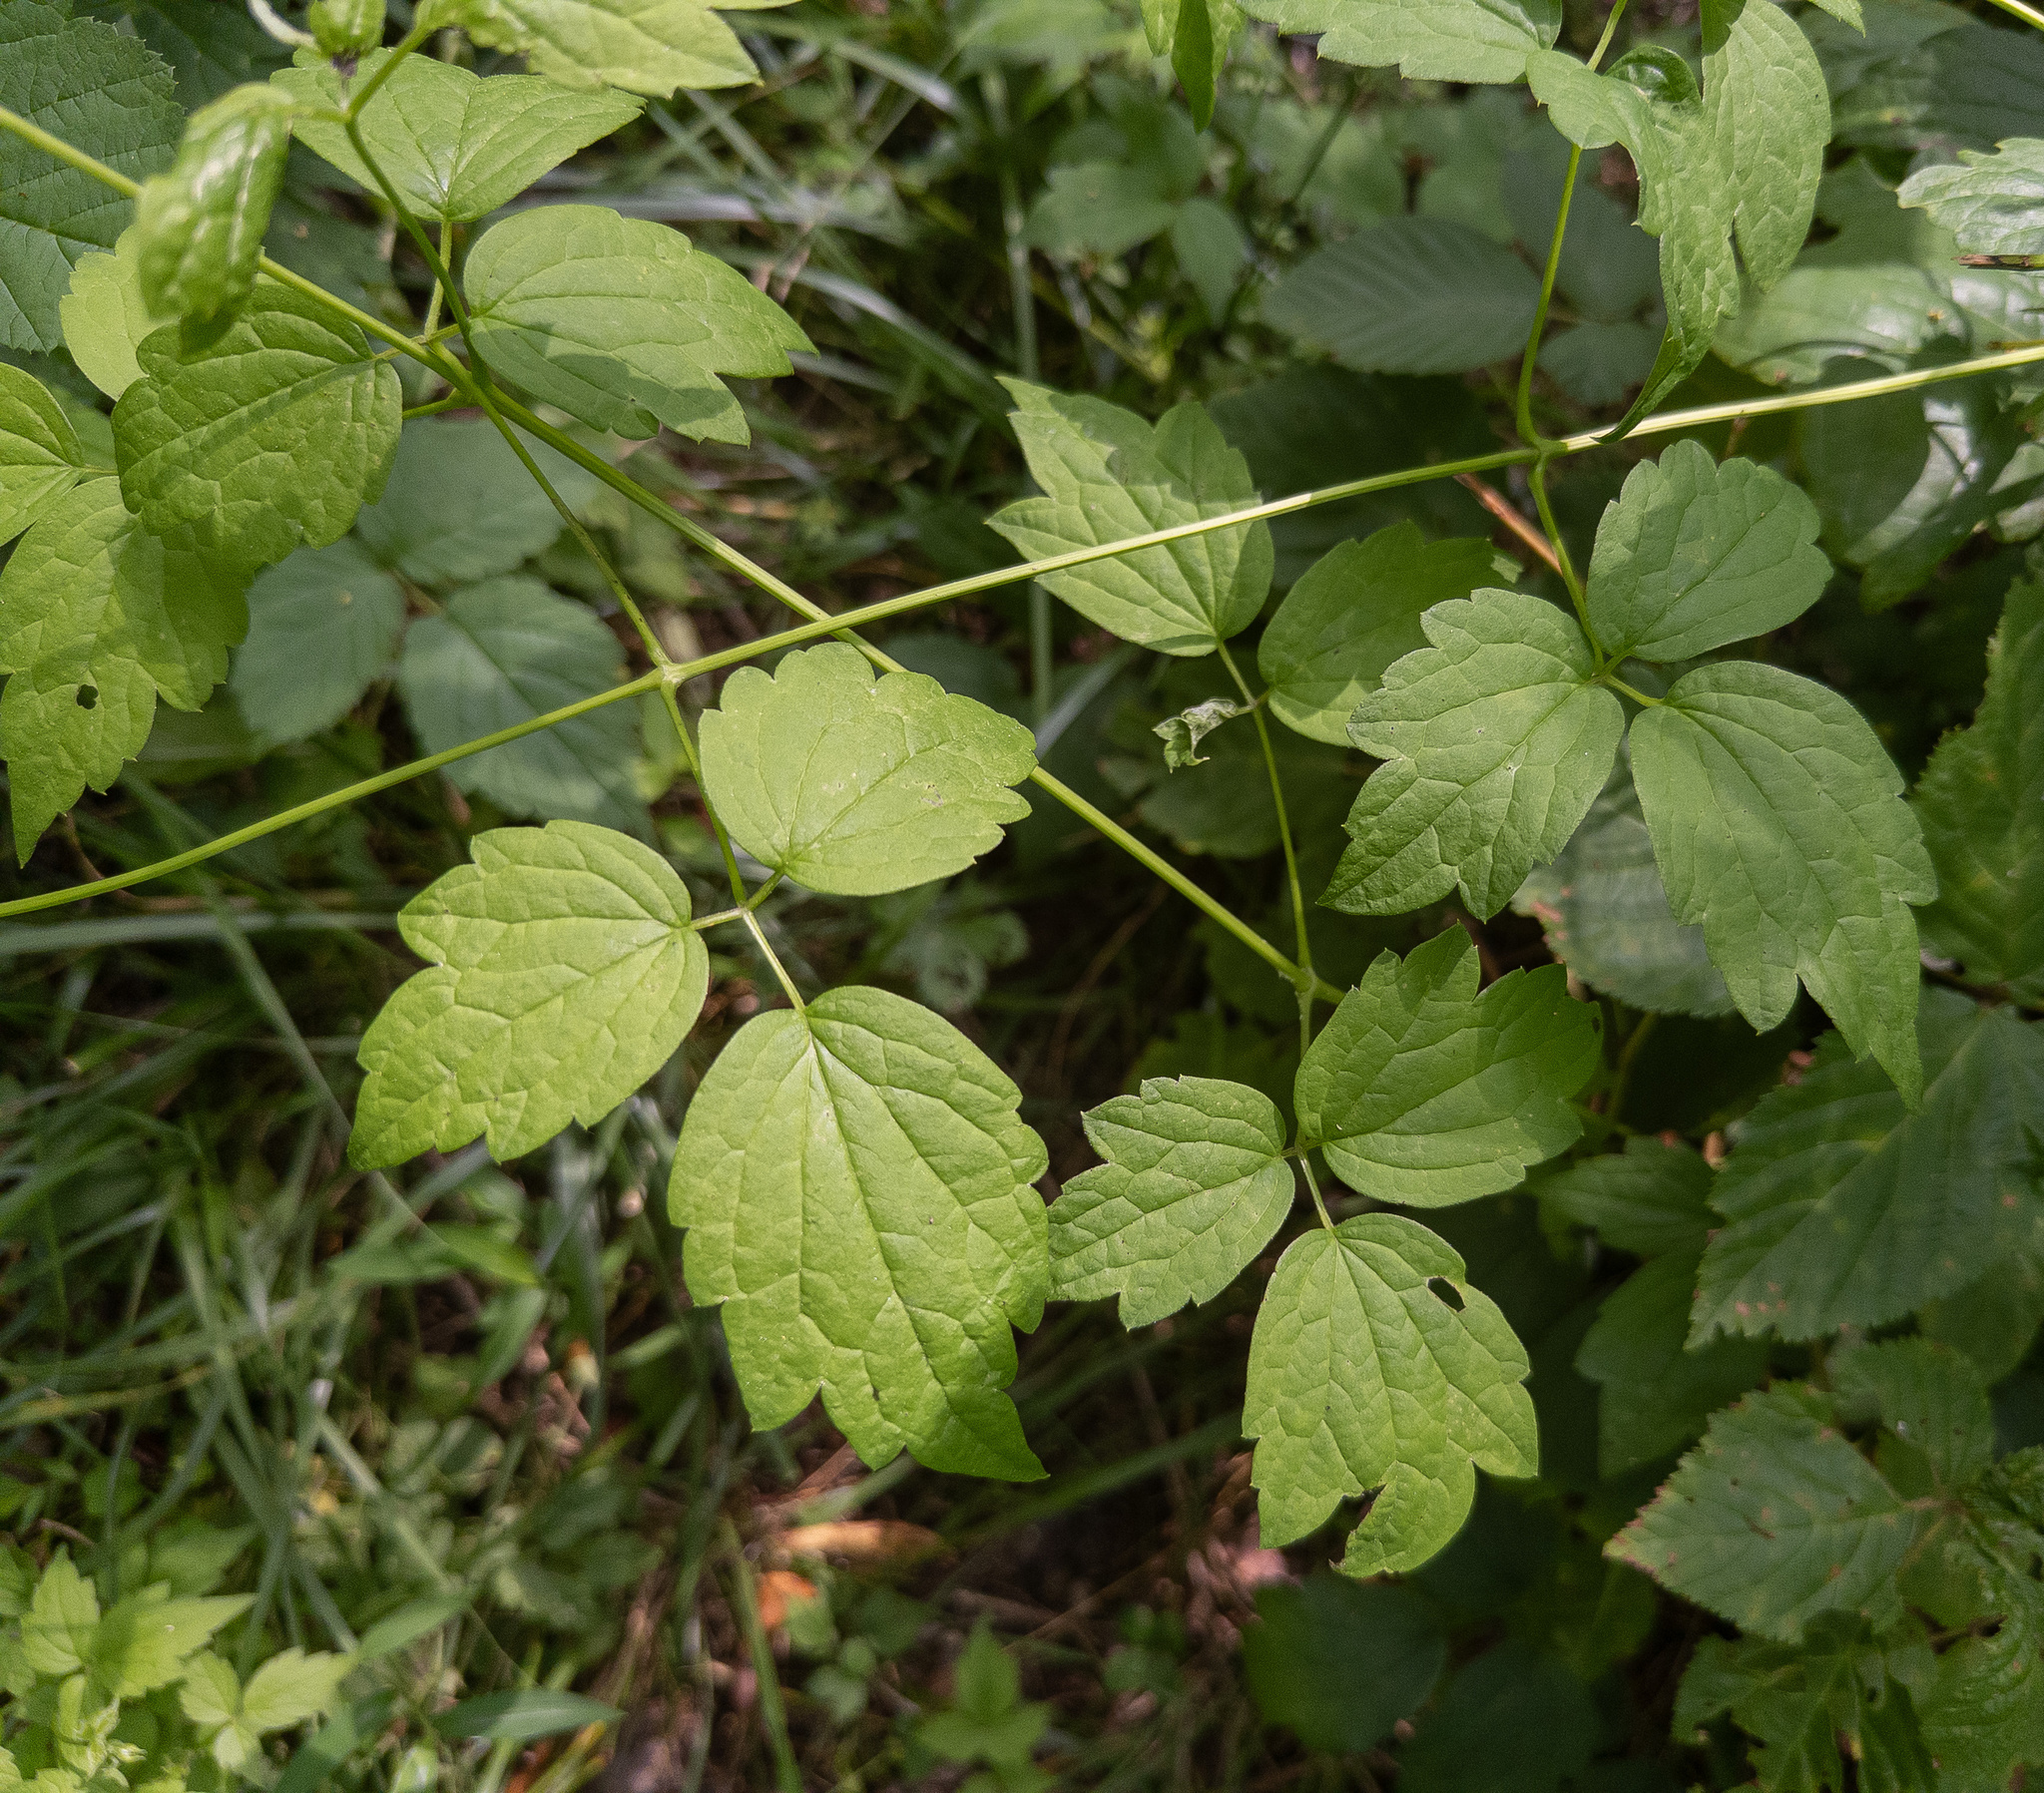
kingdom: Plantae
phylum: Tracheophyta
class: Magnoliopsida
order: Ranunculales
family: Ranunculaceae
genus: Clematis
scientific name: Clematis virginiana
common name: Virgin's-bower
